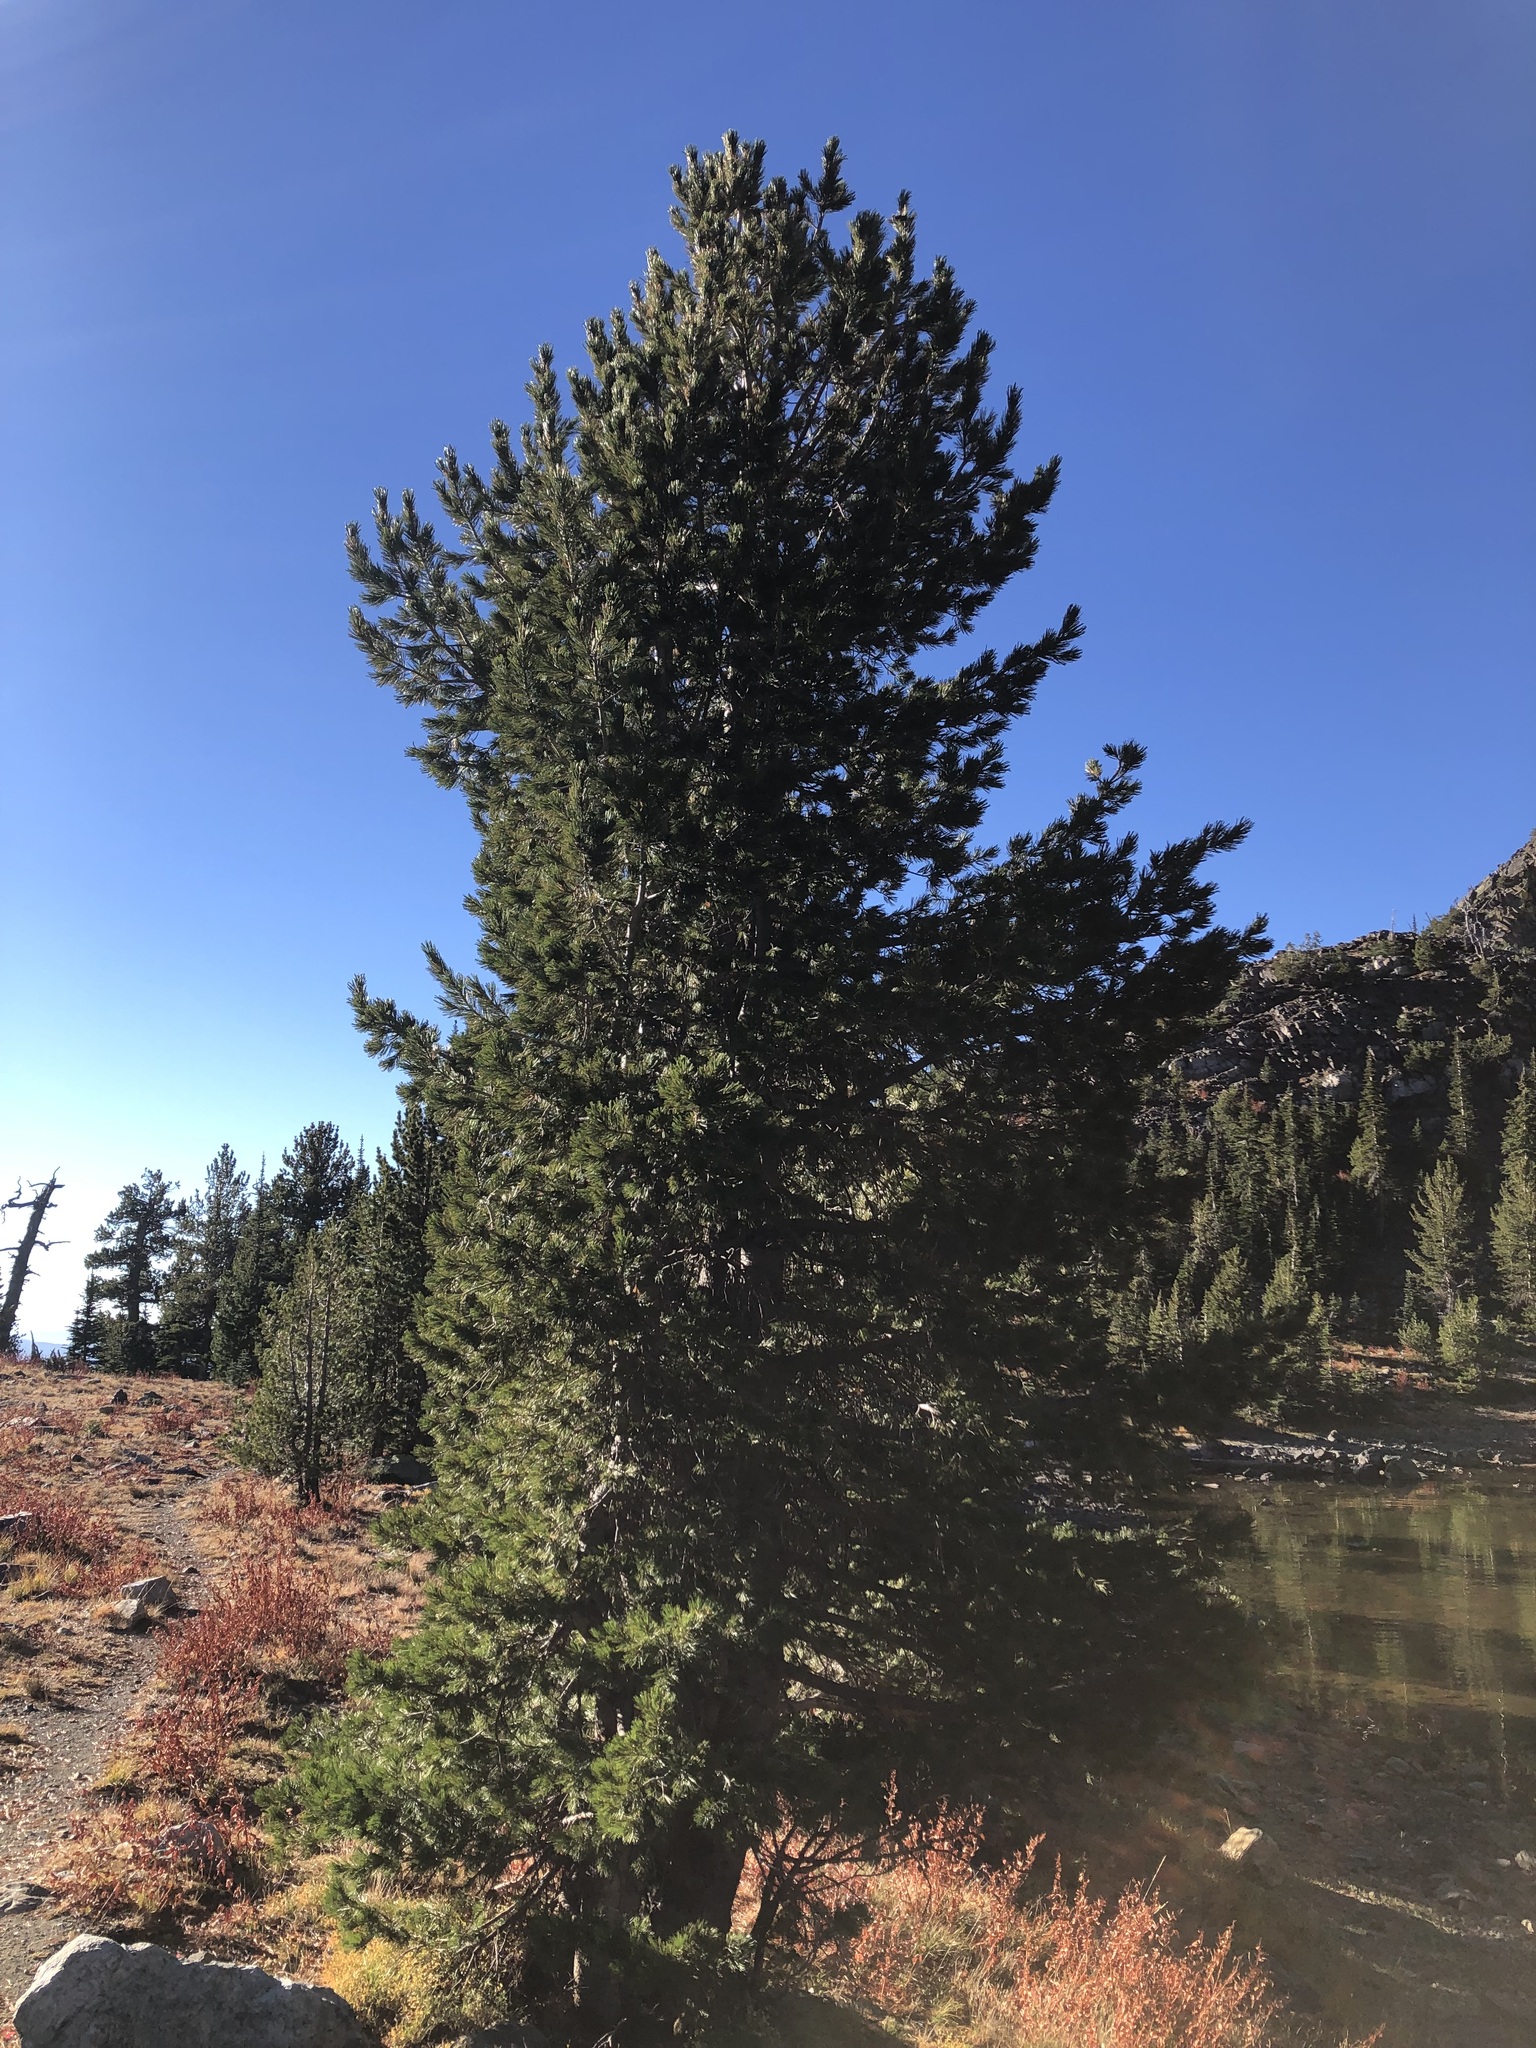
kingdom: Plantae
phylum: Tracheophyta
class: Pinopsida
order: Pinales
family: Pinaceae
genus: Pinus
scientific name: Pinus albicaulis
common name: Whitebark pine
